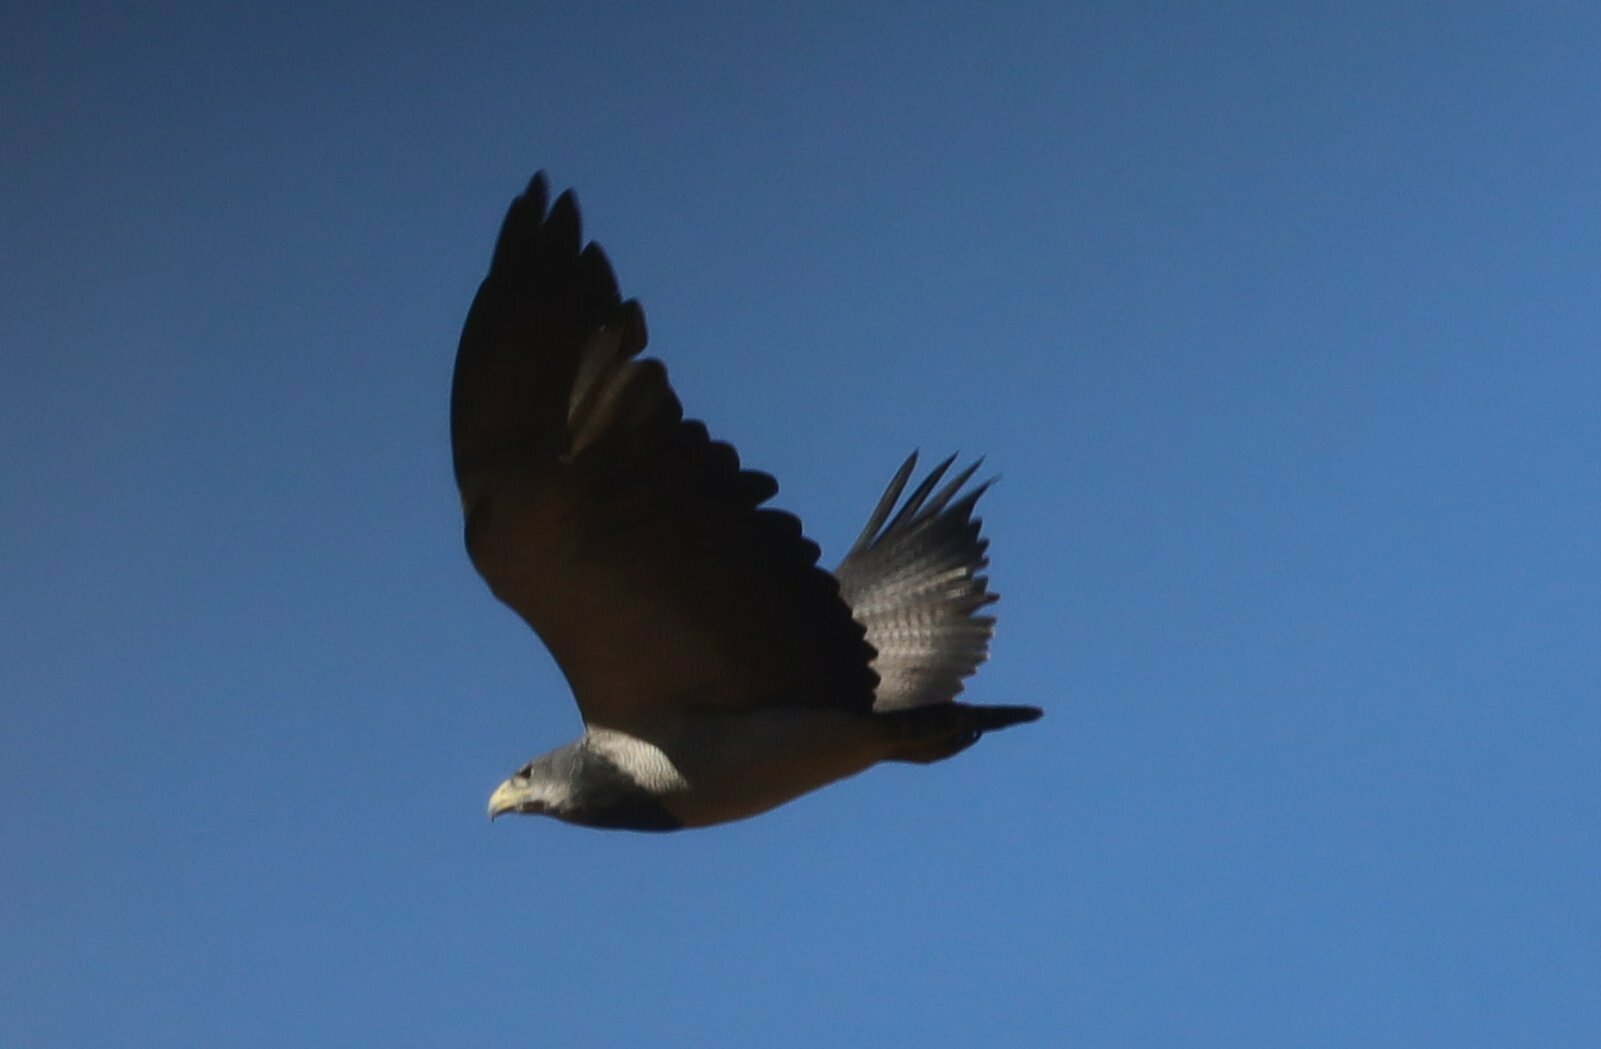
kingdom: Animalia
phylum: Chordata
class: Aves
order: Accipitriformes
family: Accipitridae
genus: Geranoaetus
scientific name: Geranoaetus melanoleucus
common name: Black-chested buzzard-eagle
